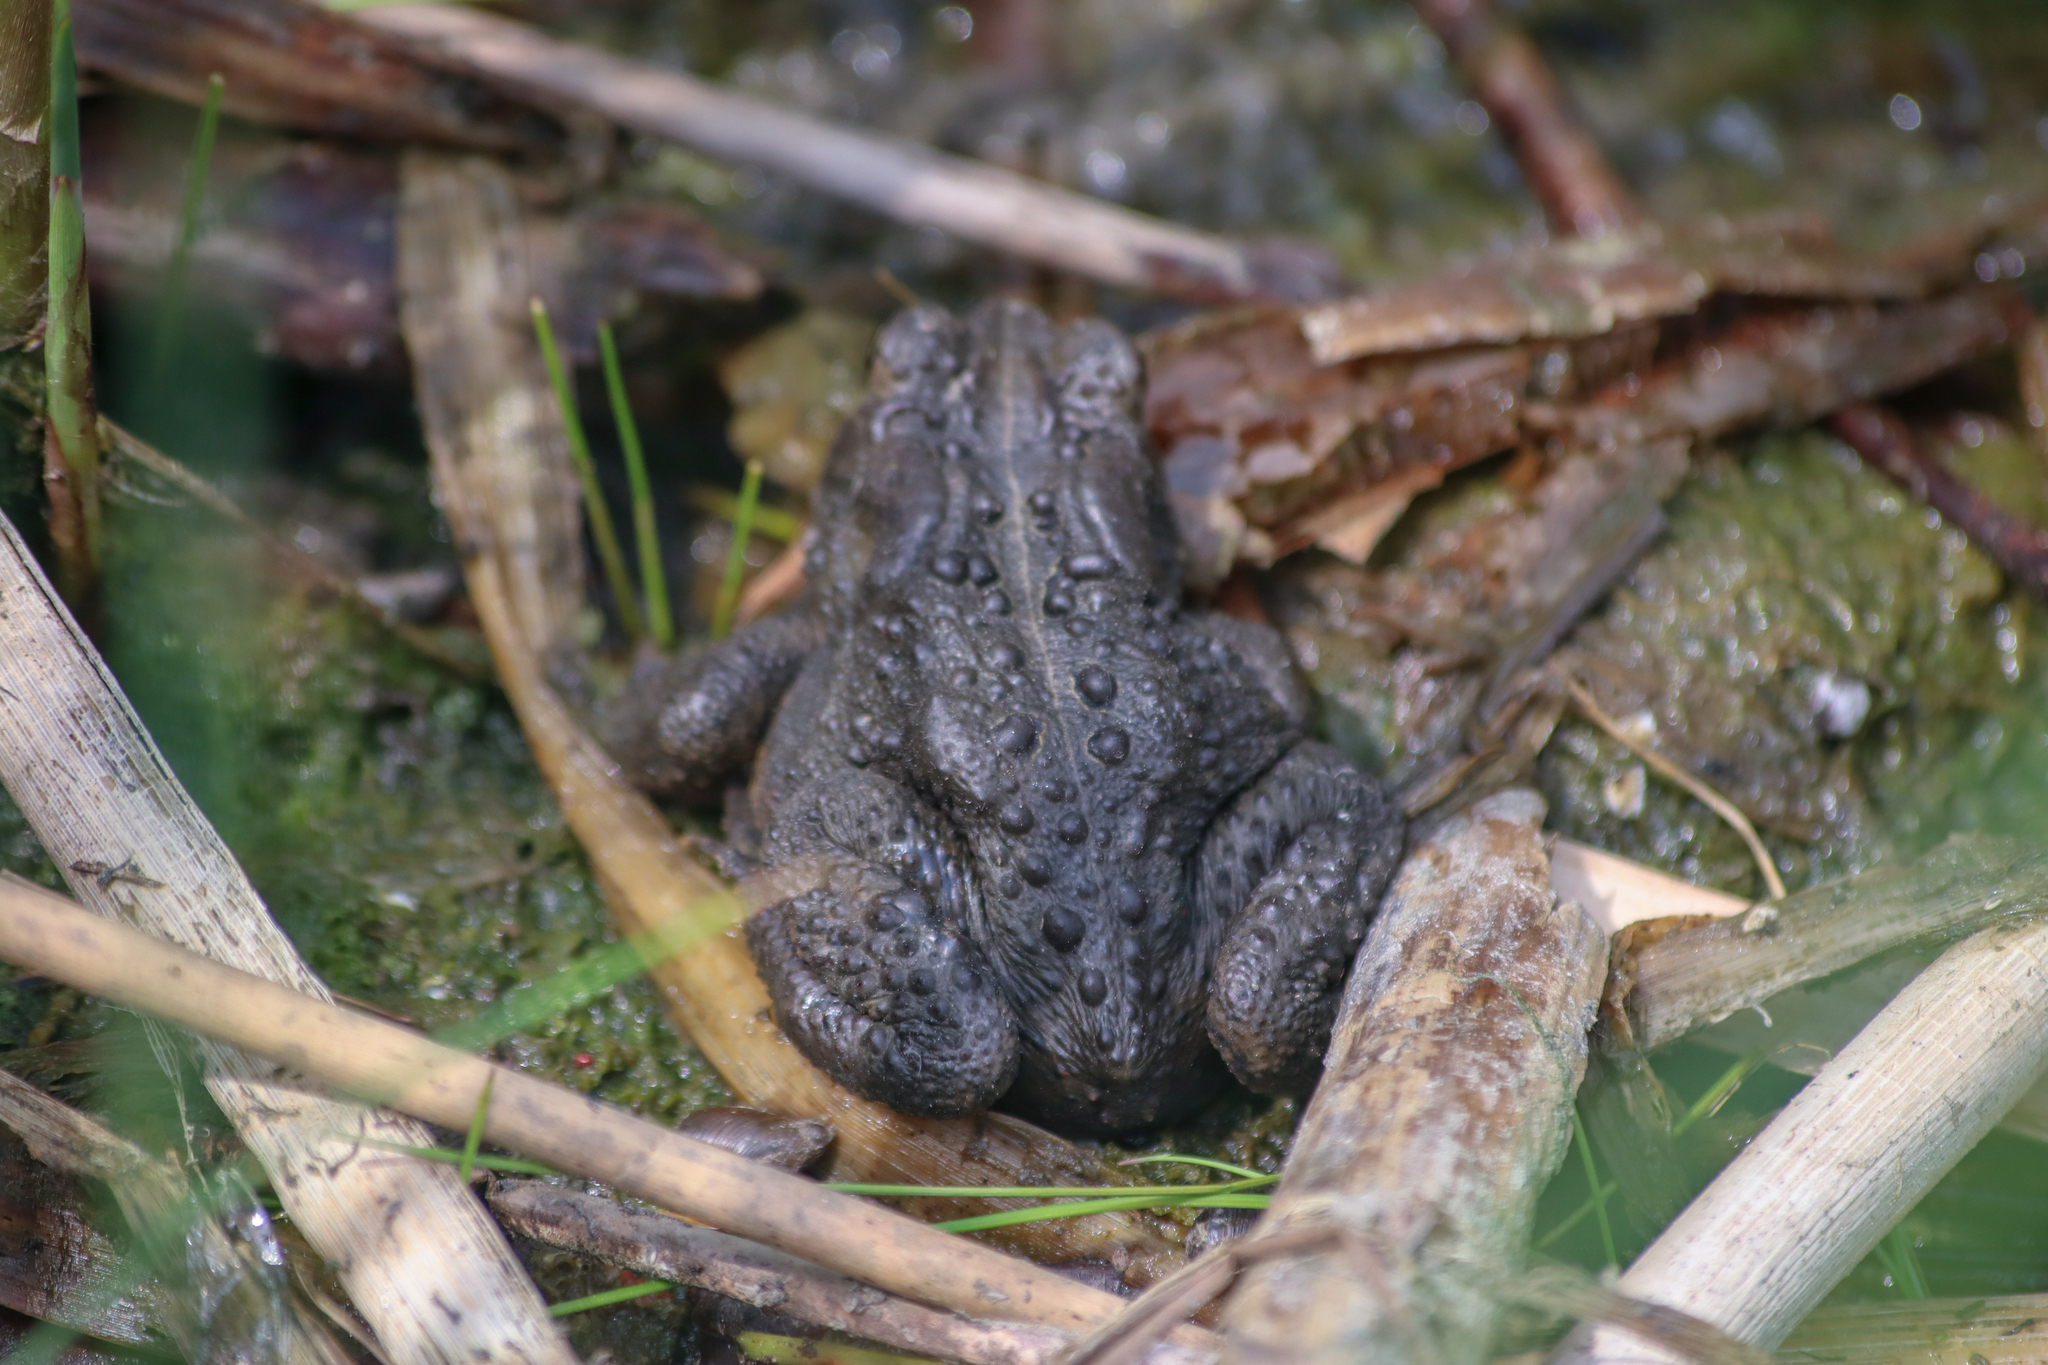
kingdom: Animalia
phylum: Chordata
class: Amphibia
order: Anura
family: Bufonidae
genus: Anaxyrus
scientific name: Anaxyrus americanus
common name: American toad
